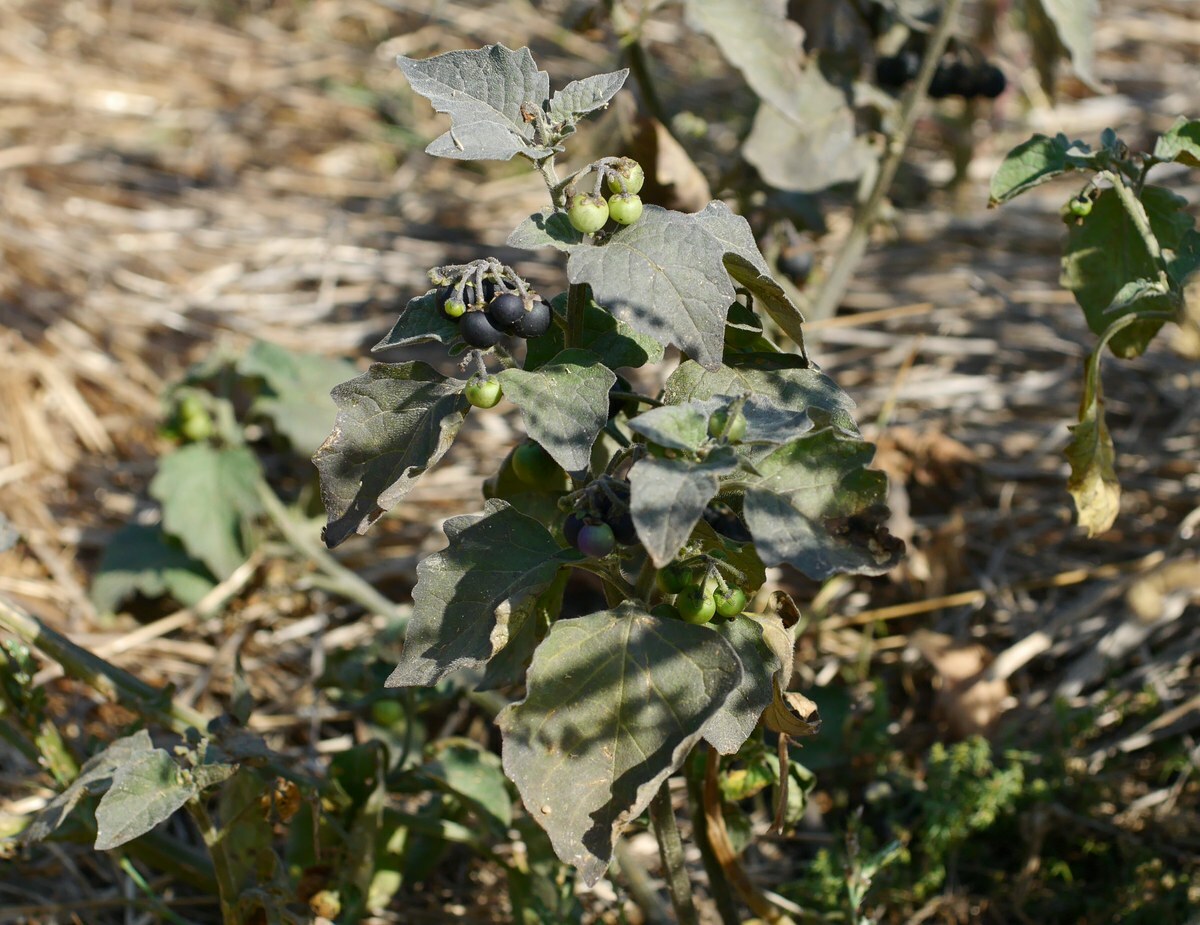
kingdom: Plantae
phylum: Tracheophyta
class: Magnoliopsida
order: Solanales
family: Solanaceae
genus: Solanum
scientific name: Solanum nigrum
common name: Black nightshade
